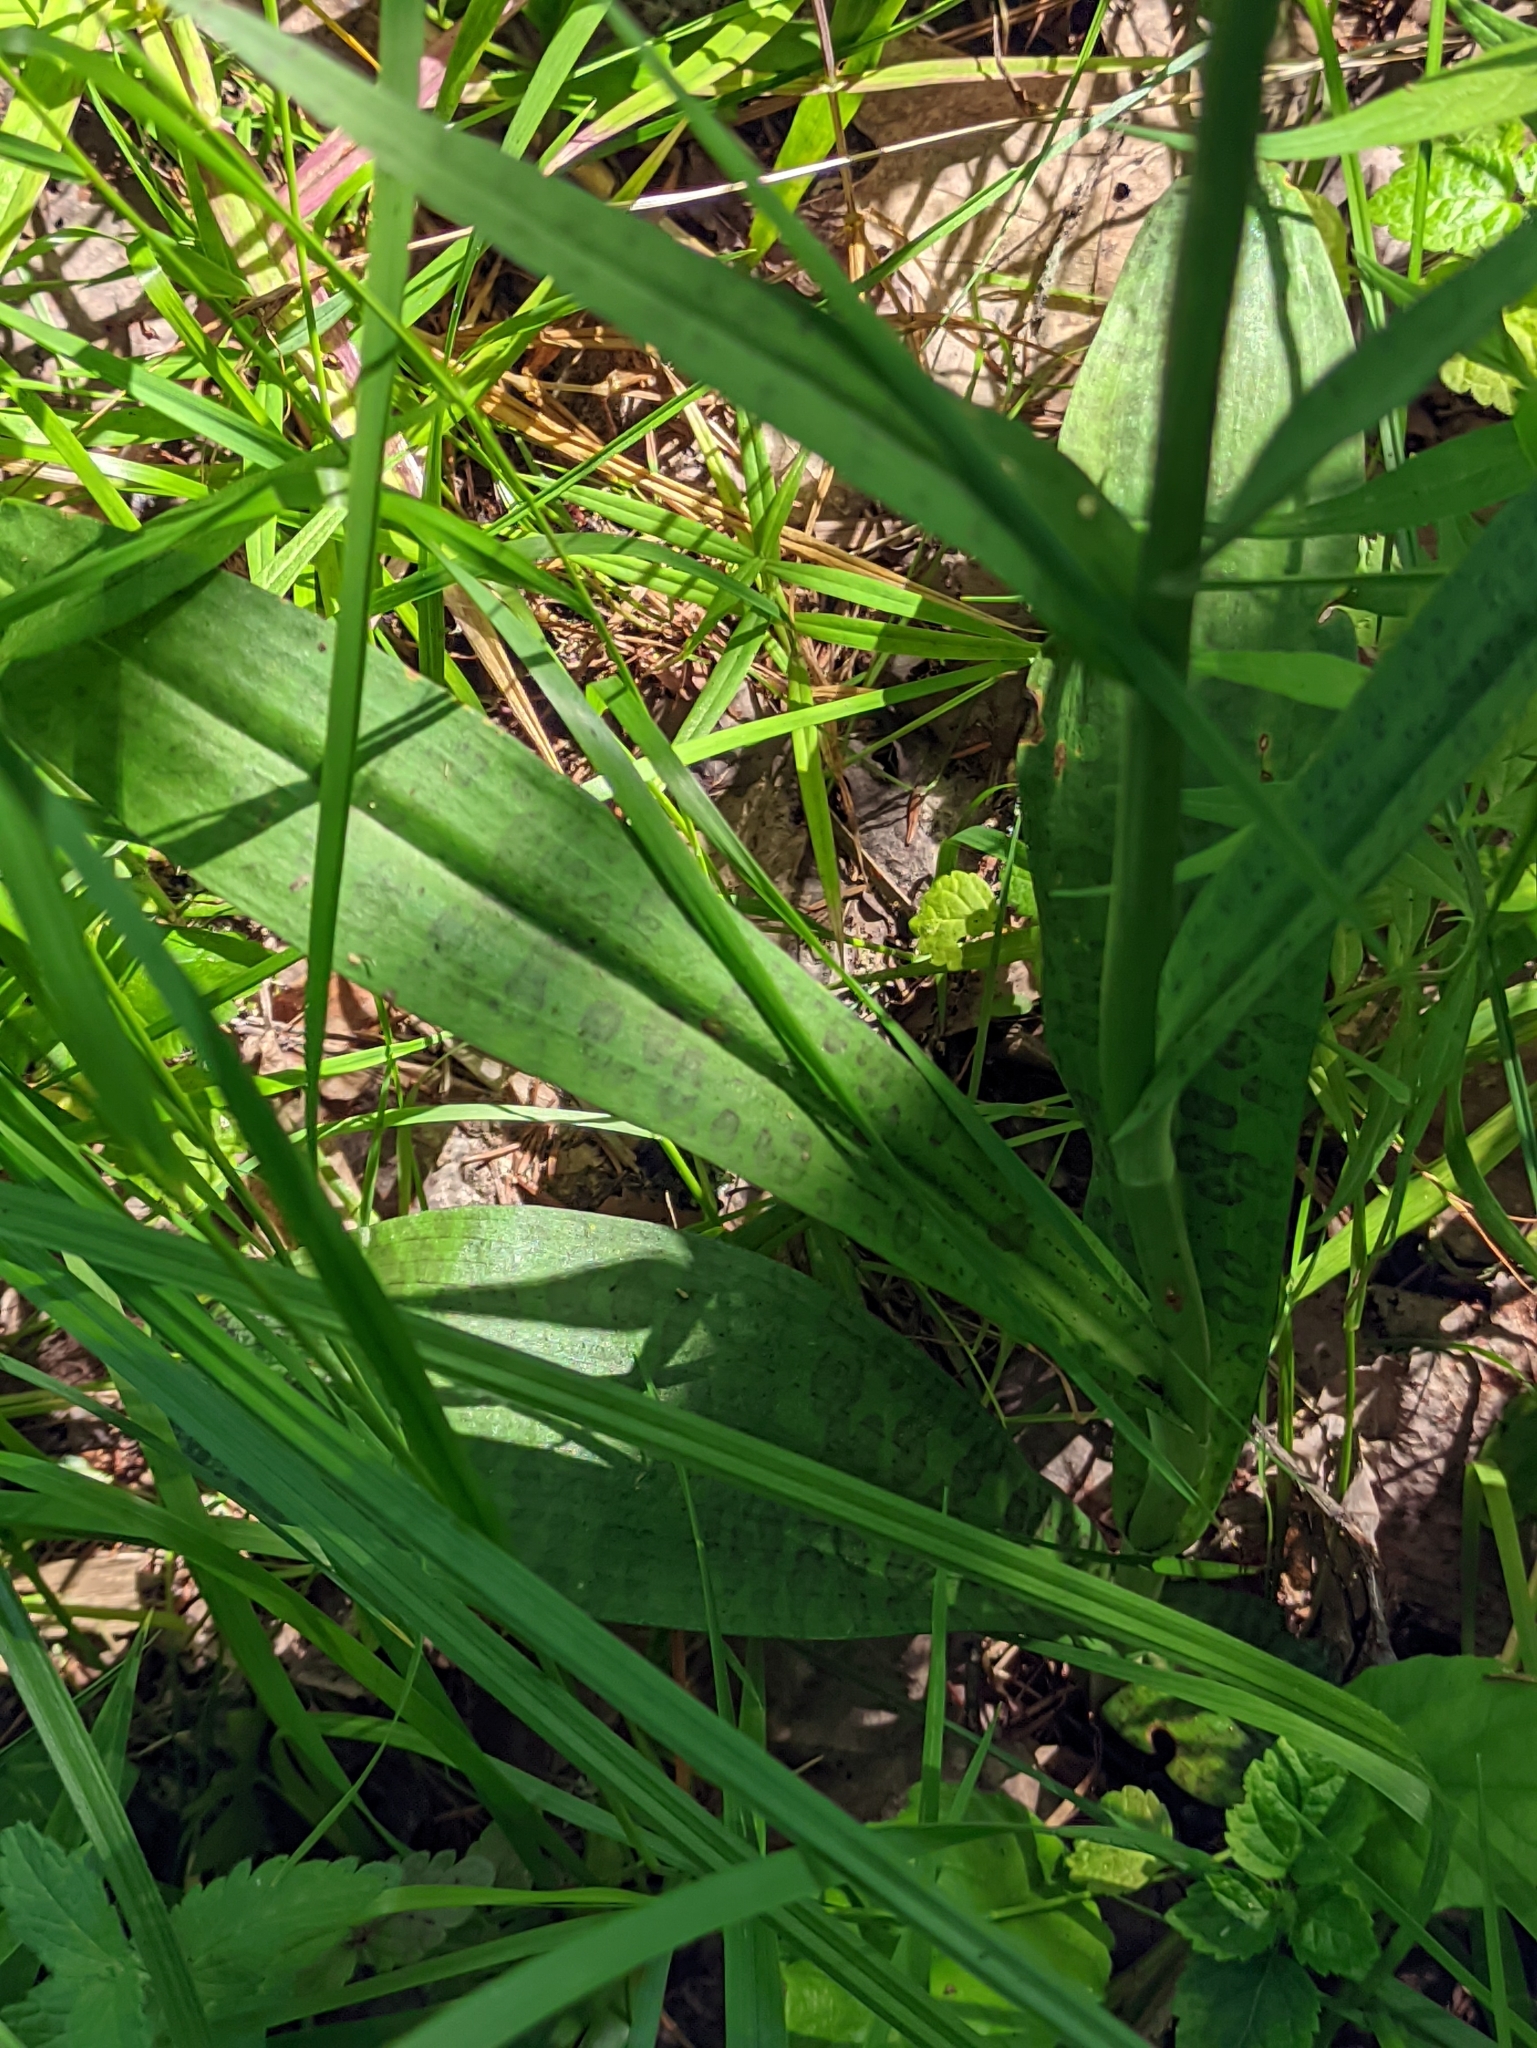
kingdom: Plantae
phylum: Tracheophyta
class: Liliopsida
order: Asparagales
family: Orchidaceae
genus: Dactylorhiza
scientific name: Dactylorhiza maculata
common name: Heath spotted-orchid
